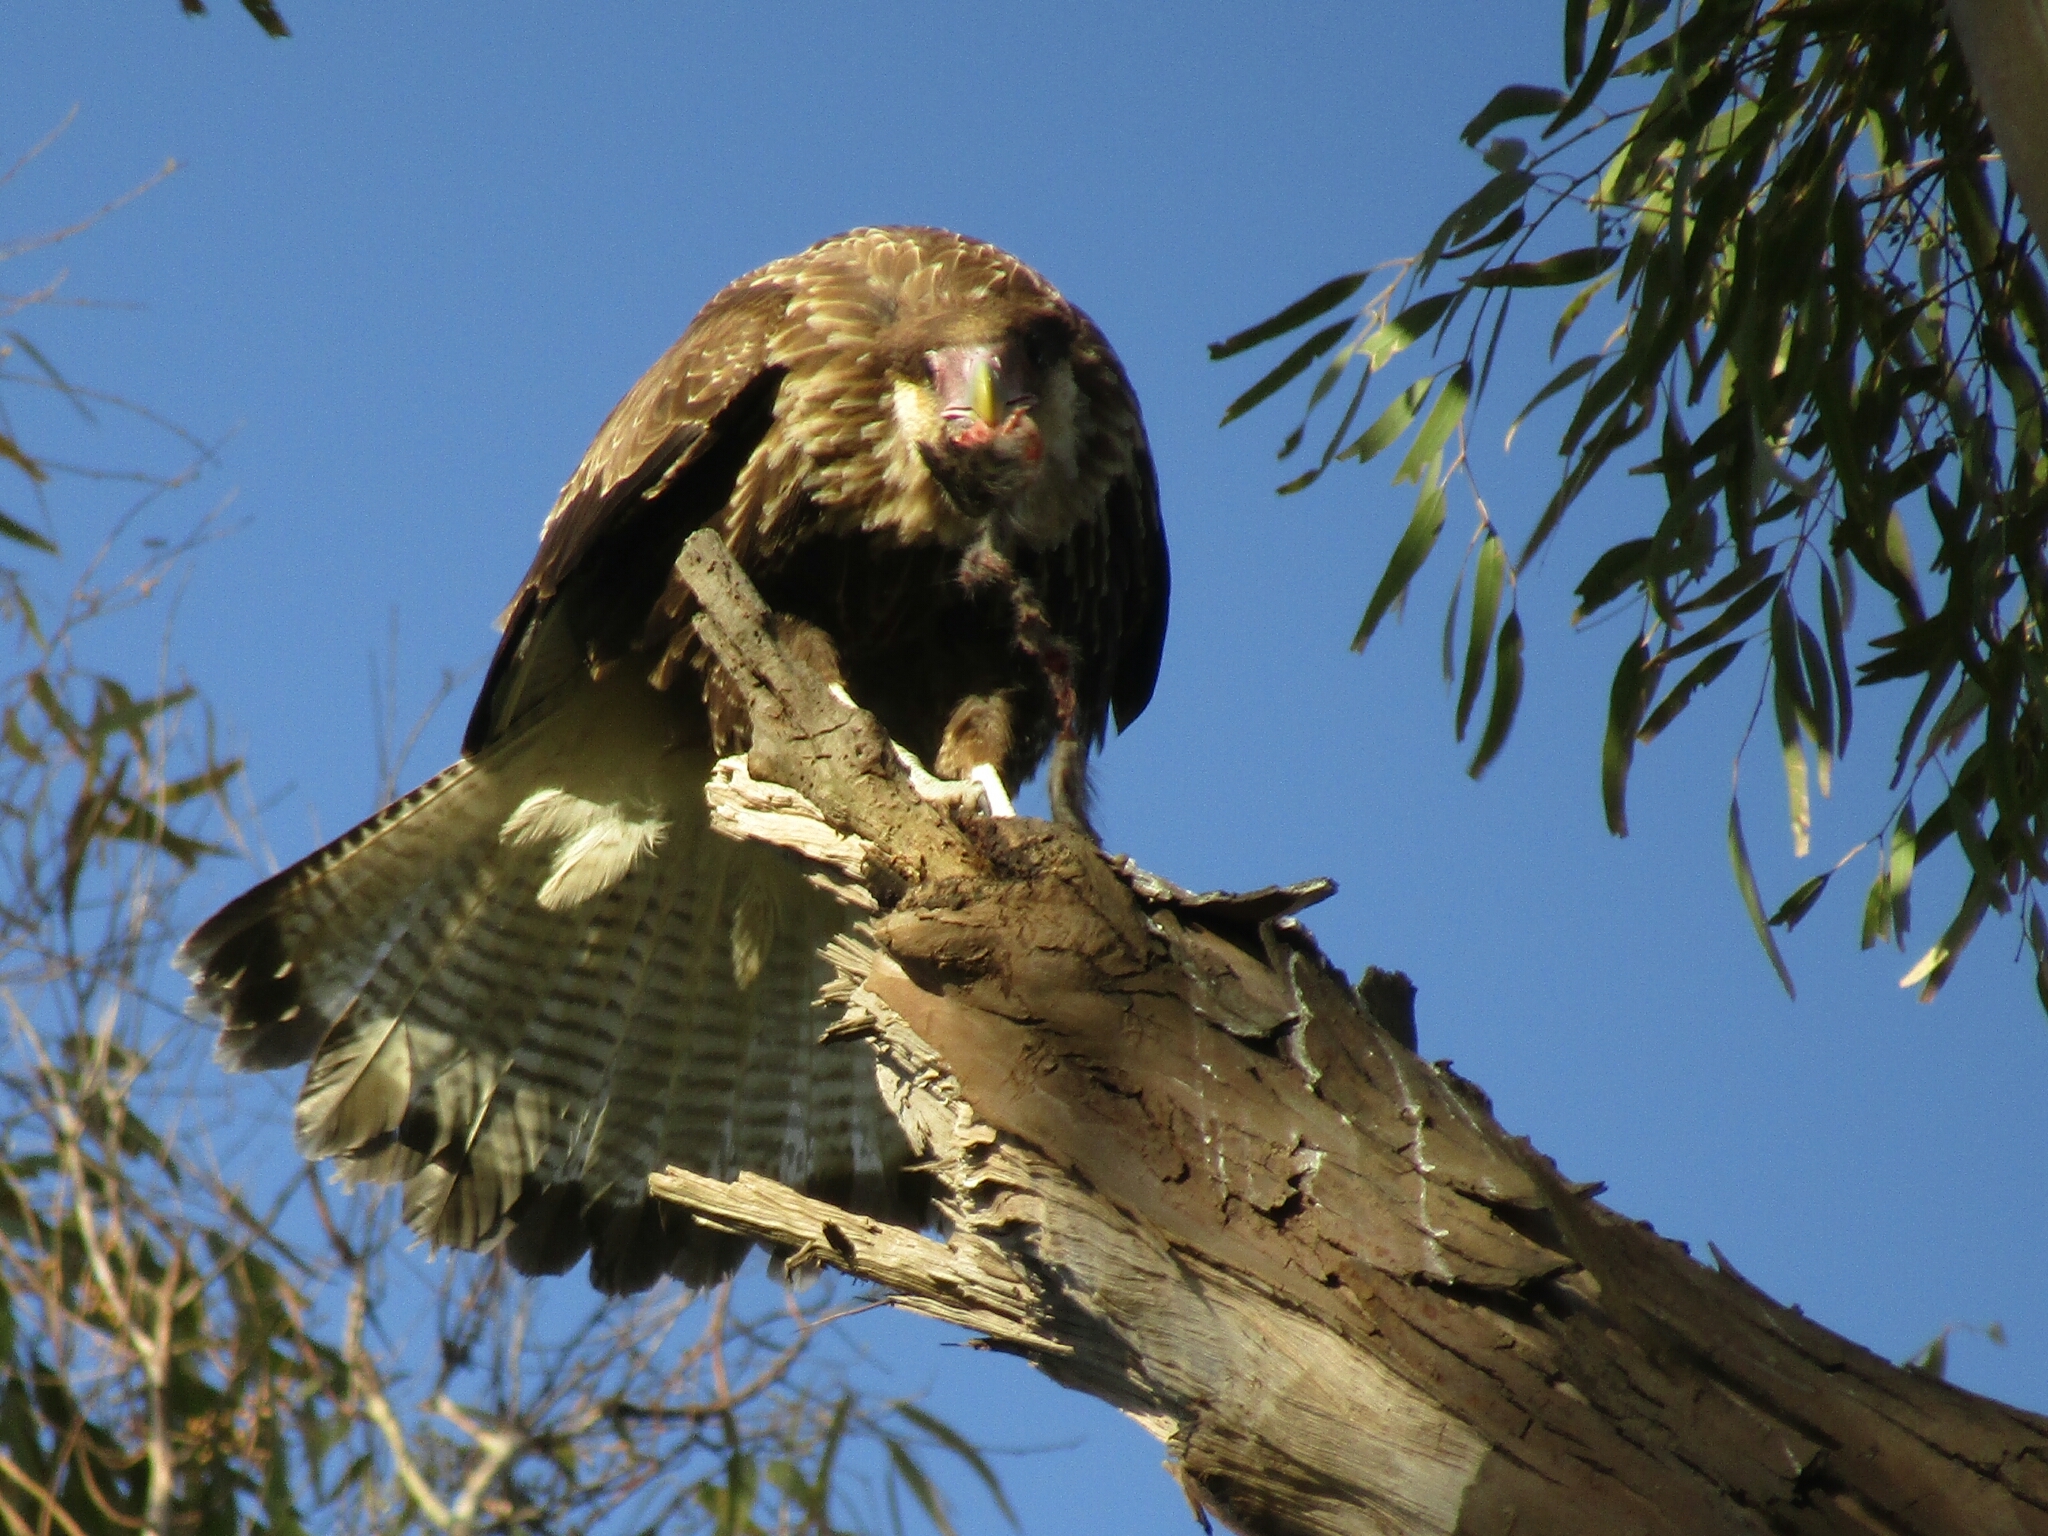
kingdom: Animalia
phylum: Chordata
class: Aves
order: Falconiformes
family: Falconidae
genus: Caracara
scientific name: Caracara plancus
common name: Southern caracara
